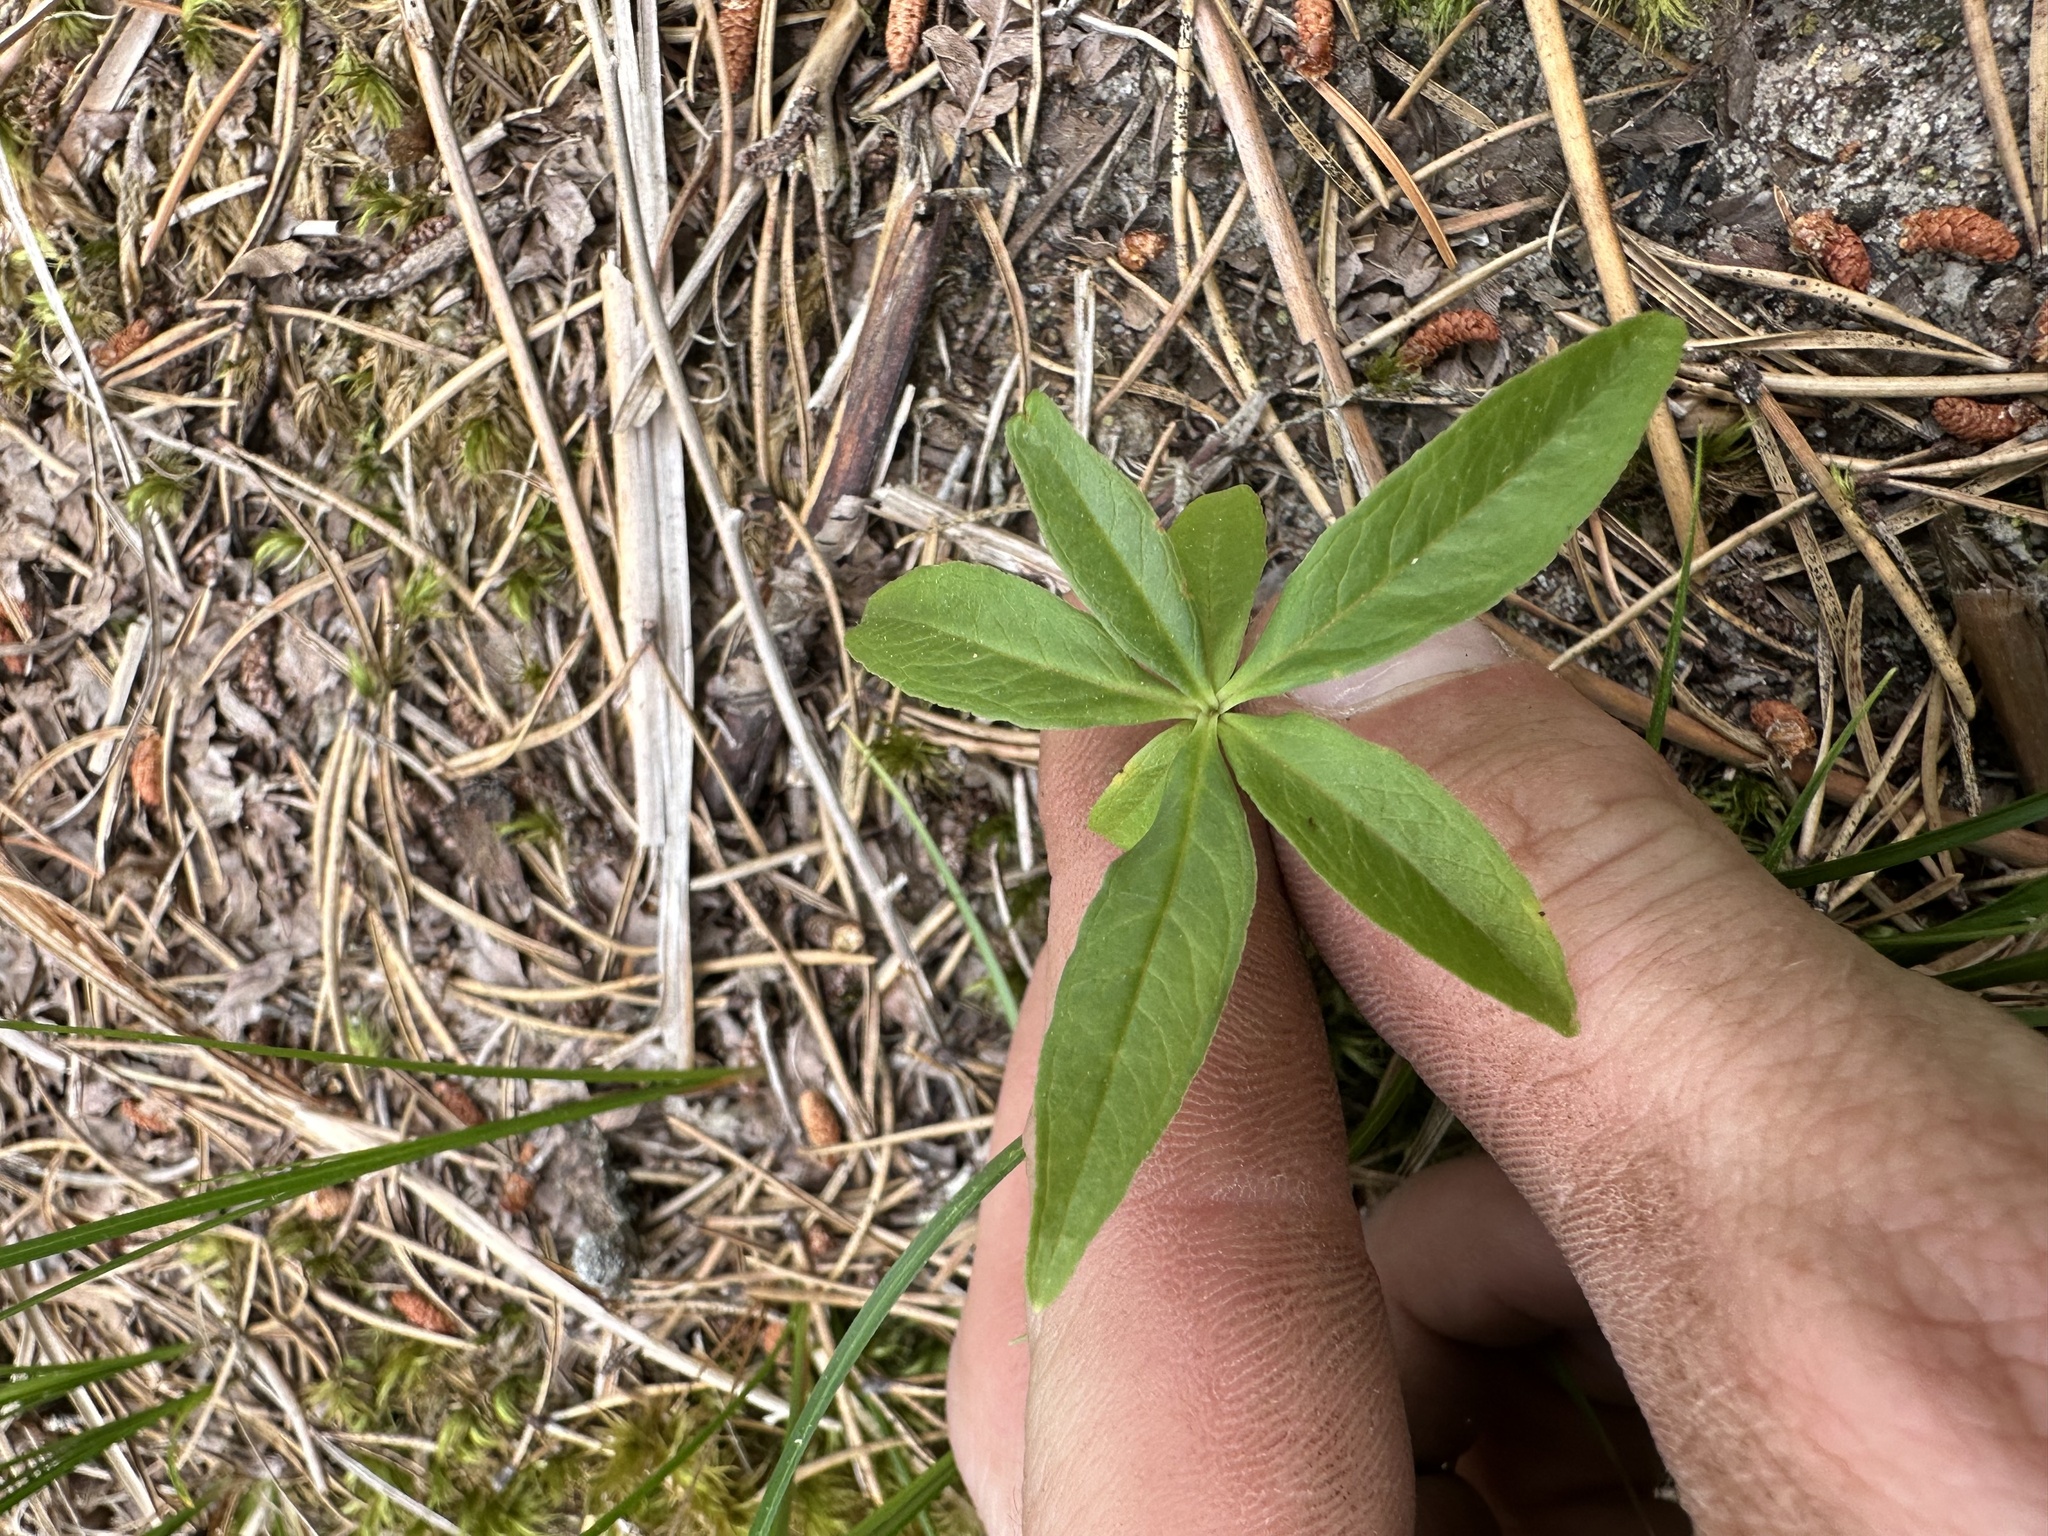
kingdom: Plantae
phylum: Tracheophyta
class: Magnoliopsida
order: Ericales
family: Primulaceae
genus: Lysimachia
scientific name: Lysimachia borealis
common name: American starflower
